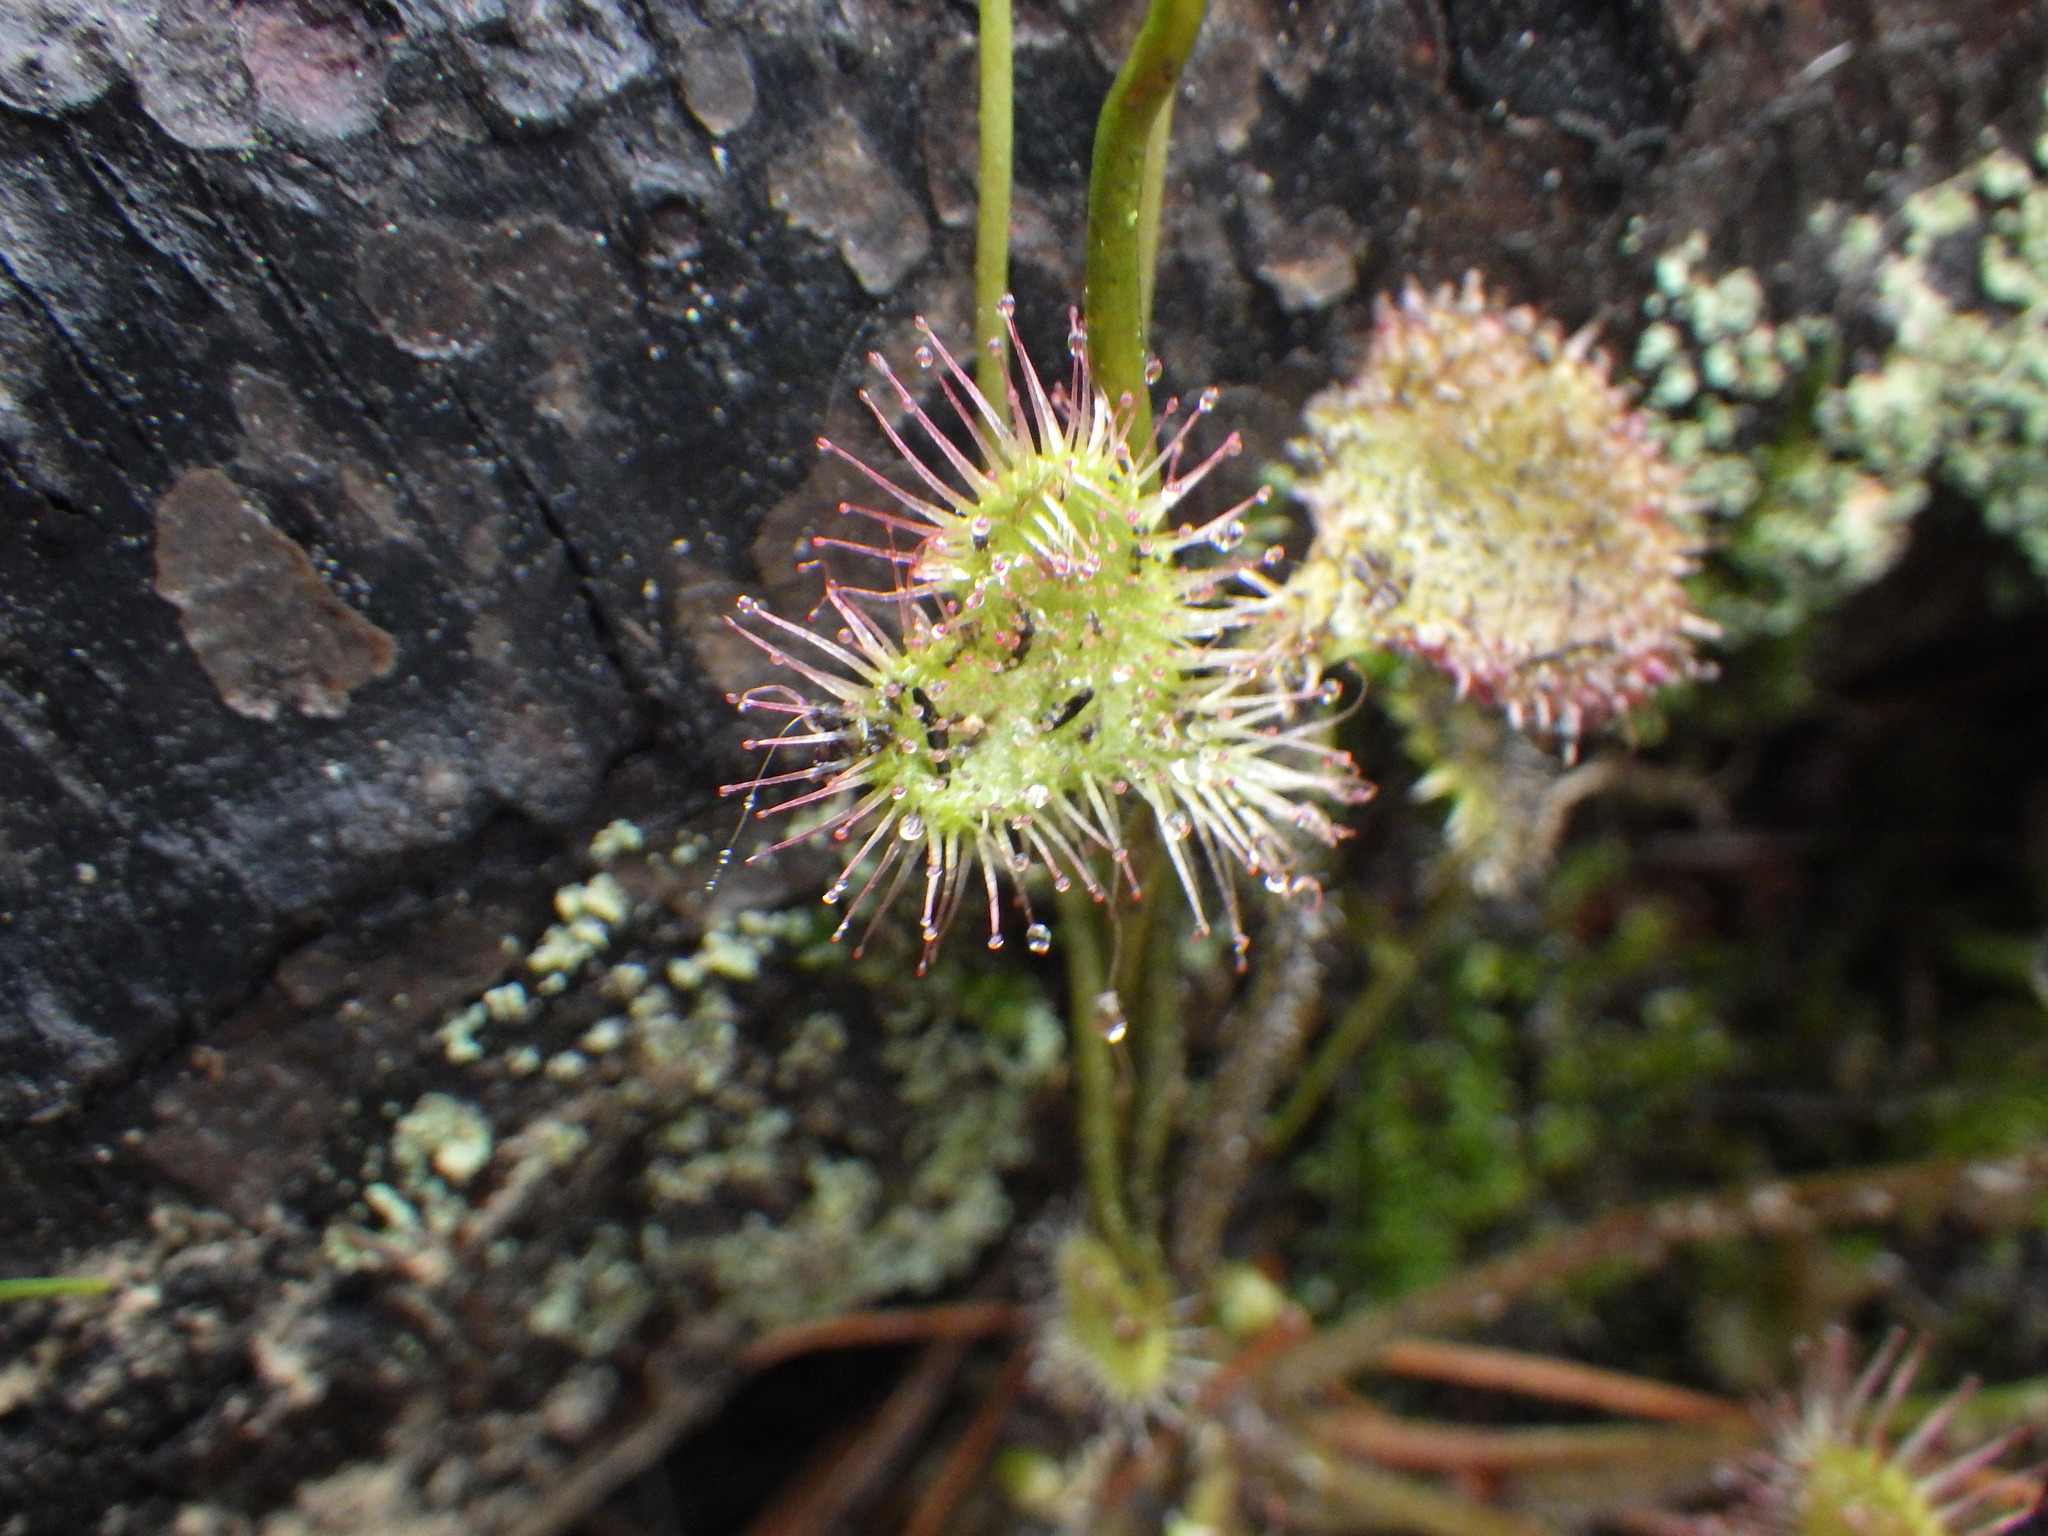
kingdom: Plantae
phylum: Tracheophyta
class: Magnoliopsida
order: Caryophyllales
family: Droseraceae
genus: Drosera
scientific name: Drosera rotundifolia
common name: Round-leaved sundew
